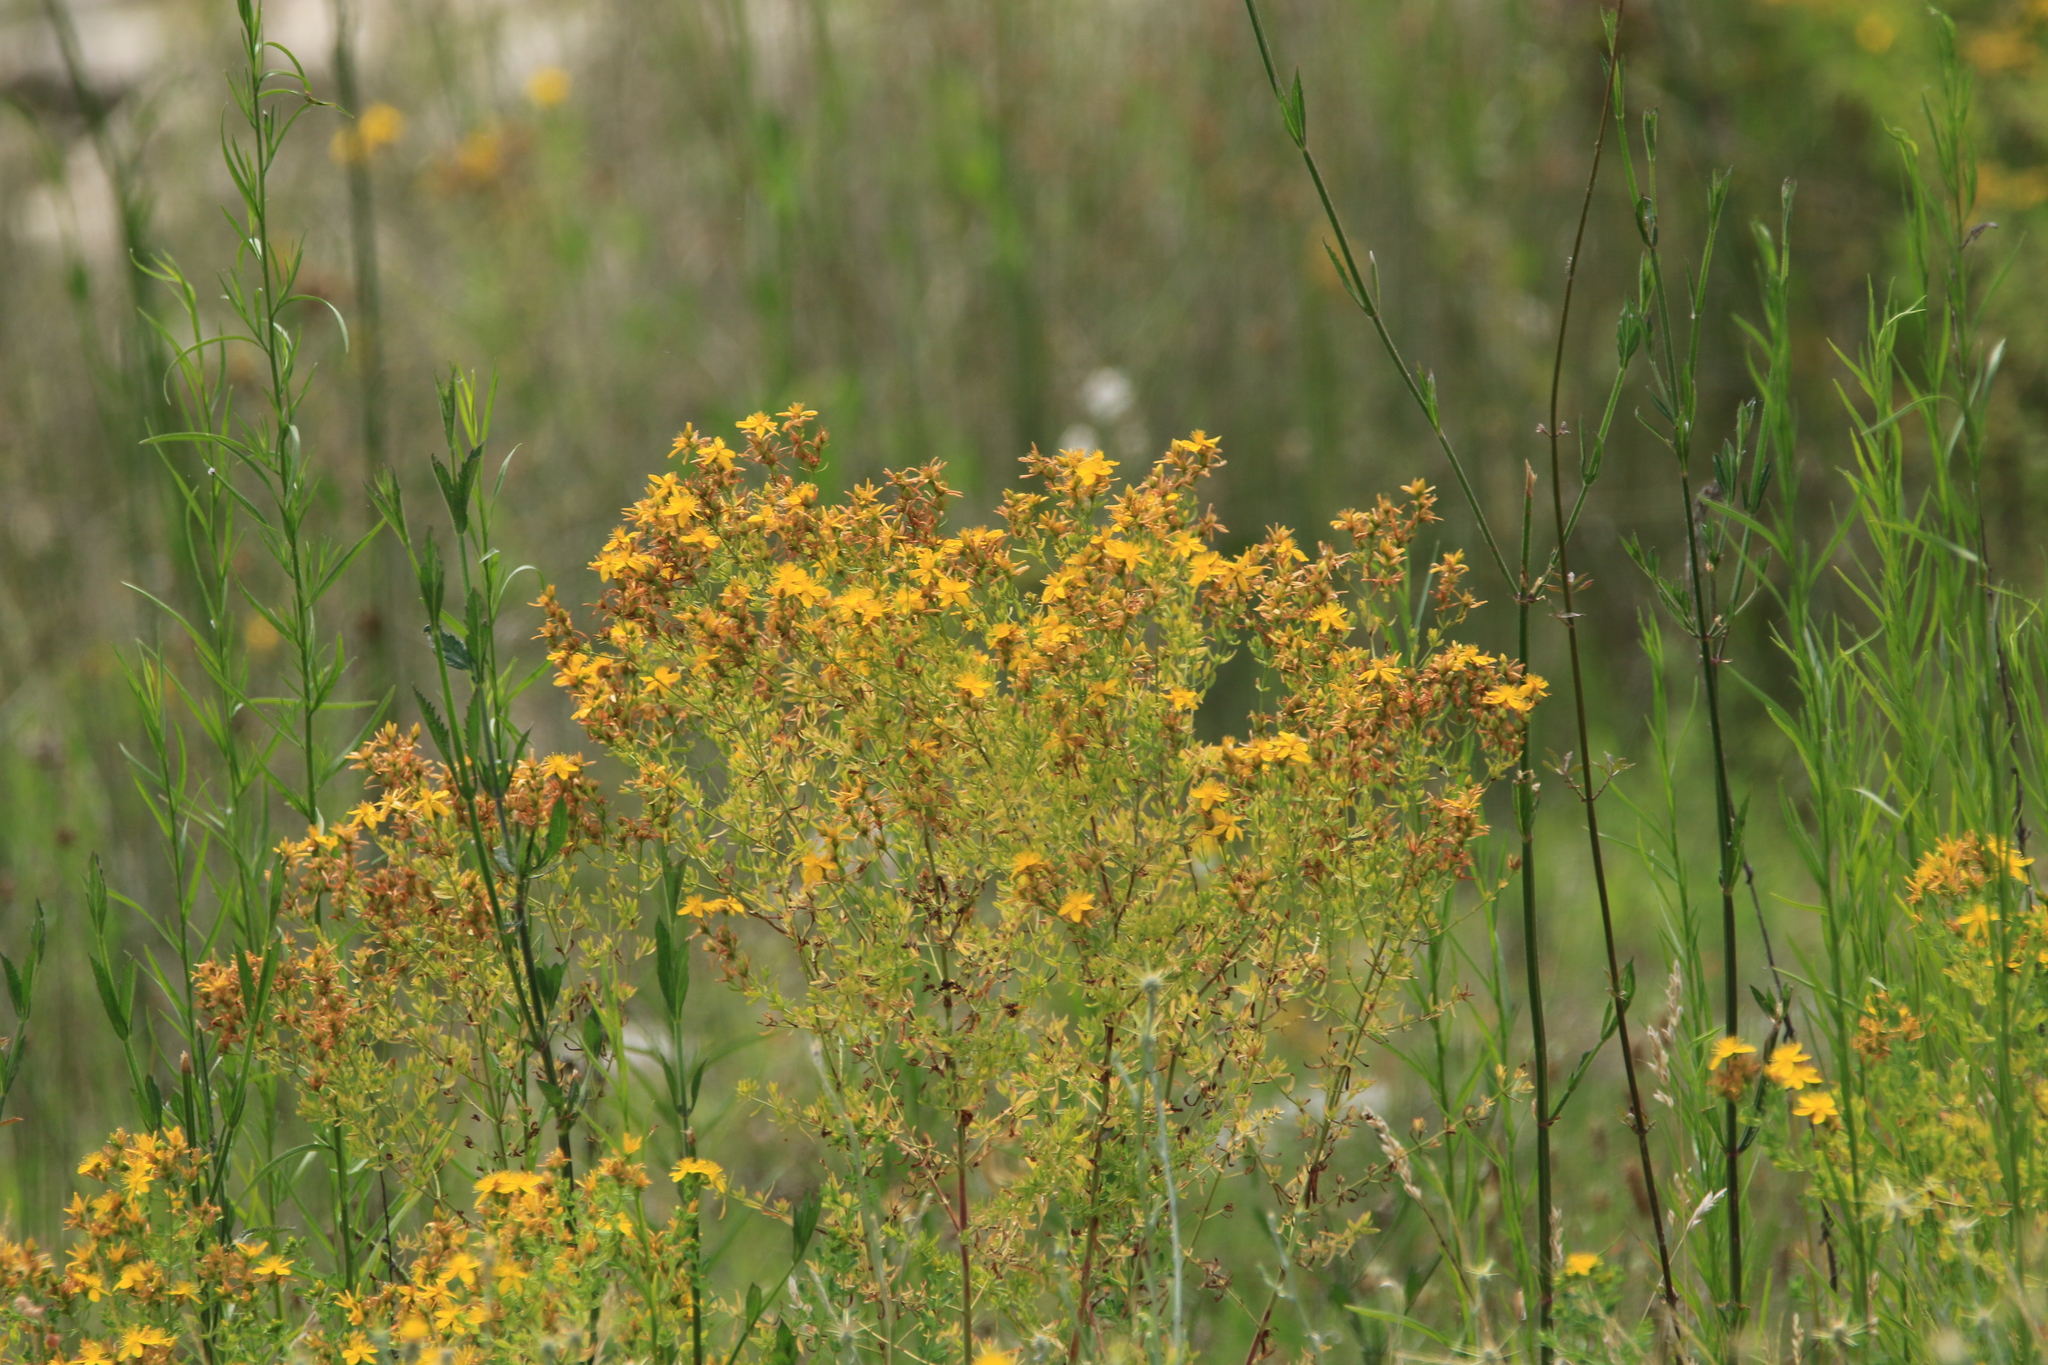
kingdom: Plantae
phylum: Tracheophyta
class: Magnoliopsida
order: Malpighiales
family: Hypericaceae
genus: Hypericum
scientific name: Hypericum perforatum
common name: Common st. johnswort
